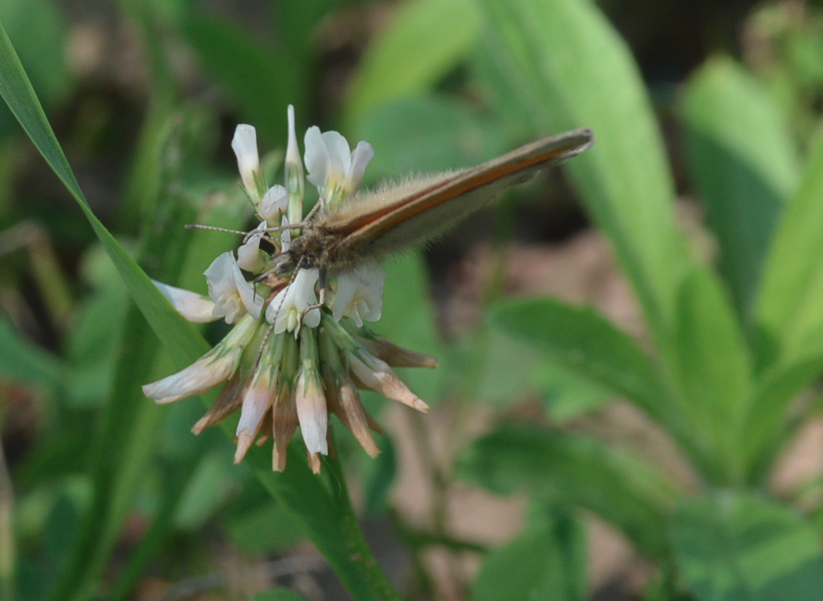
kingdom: Animalia
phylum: Arthropoda
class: Insecta
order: Lepidoptera
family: Nymphalidae
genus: Coenonympha
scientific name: Coenonympha pamphilus
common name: Small heath
